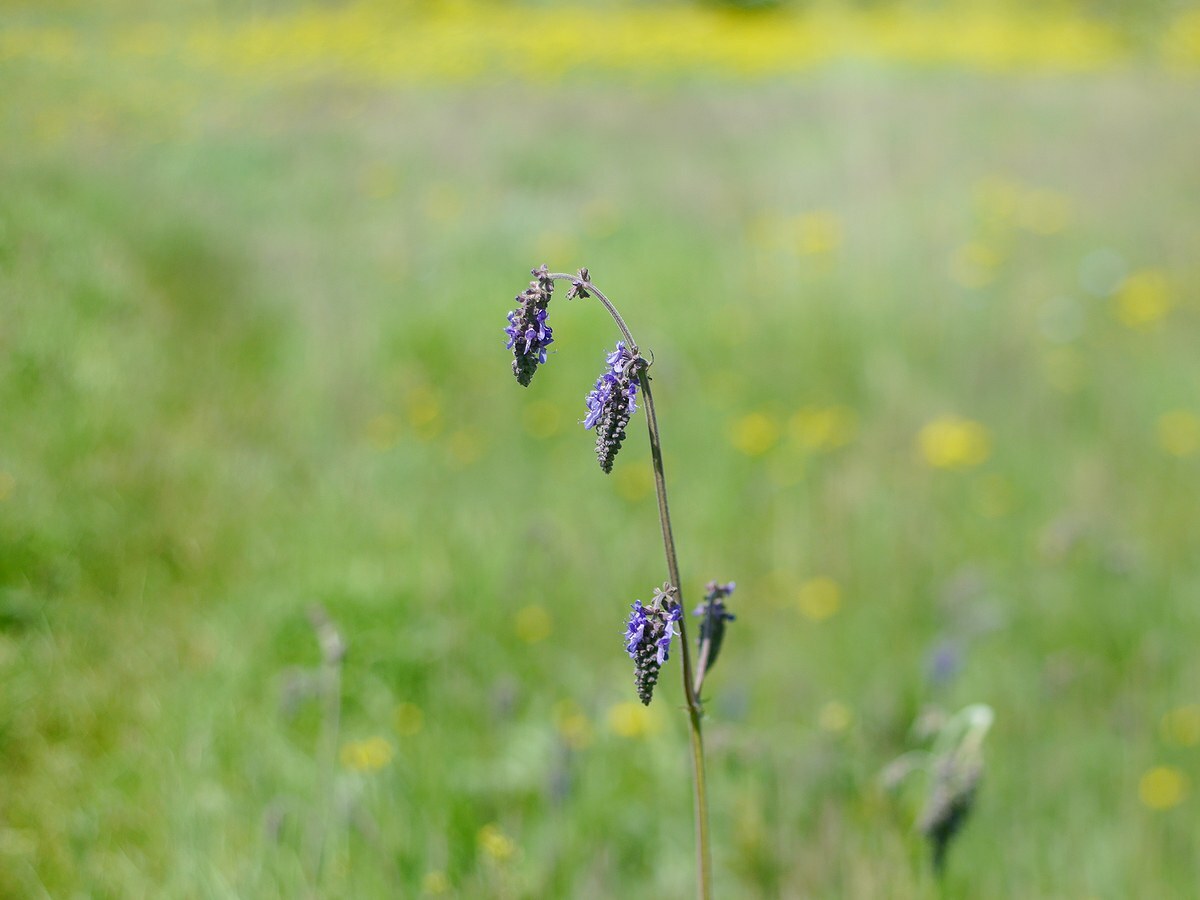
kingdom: Plantae
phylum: Tracheophyta
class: Magnoliopsida
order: Lamiales
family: Lamiaceae
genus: Salvia
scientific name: Salvia nutans
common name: Nodding sage
